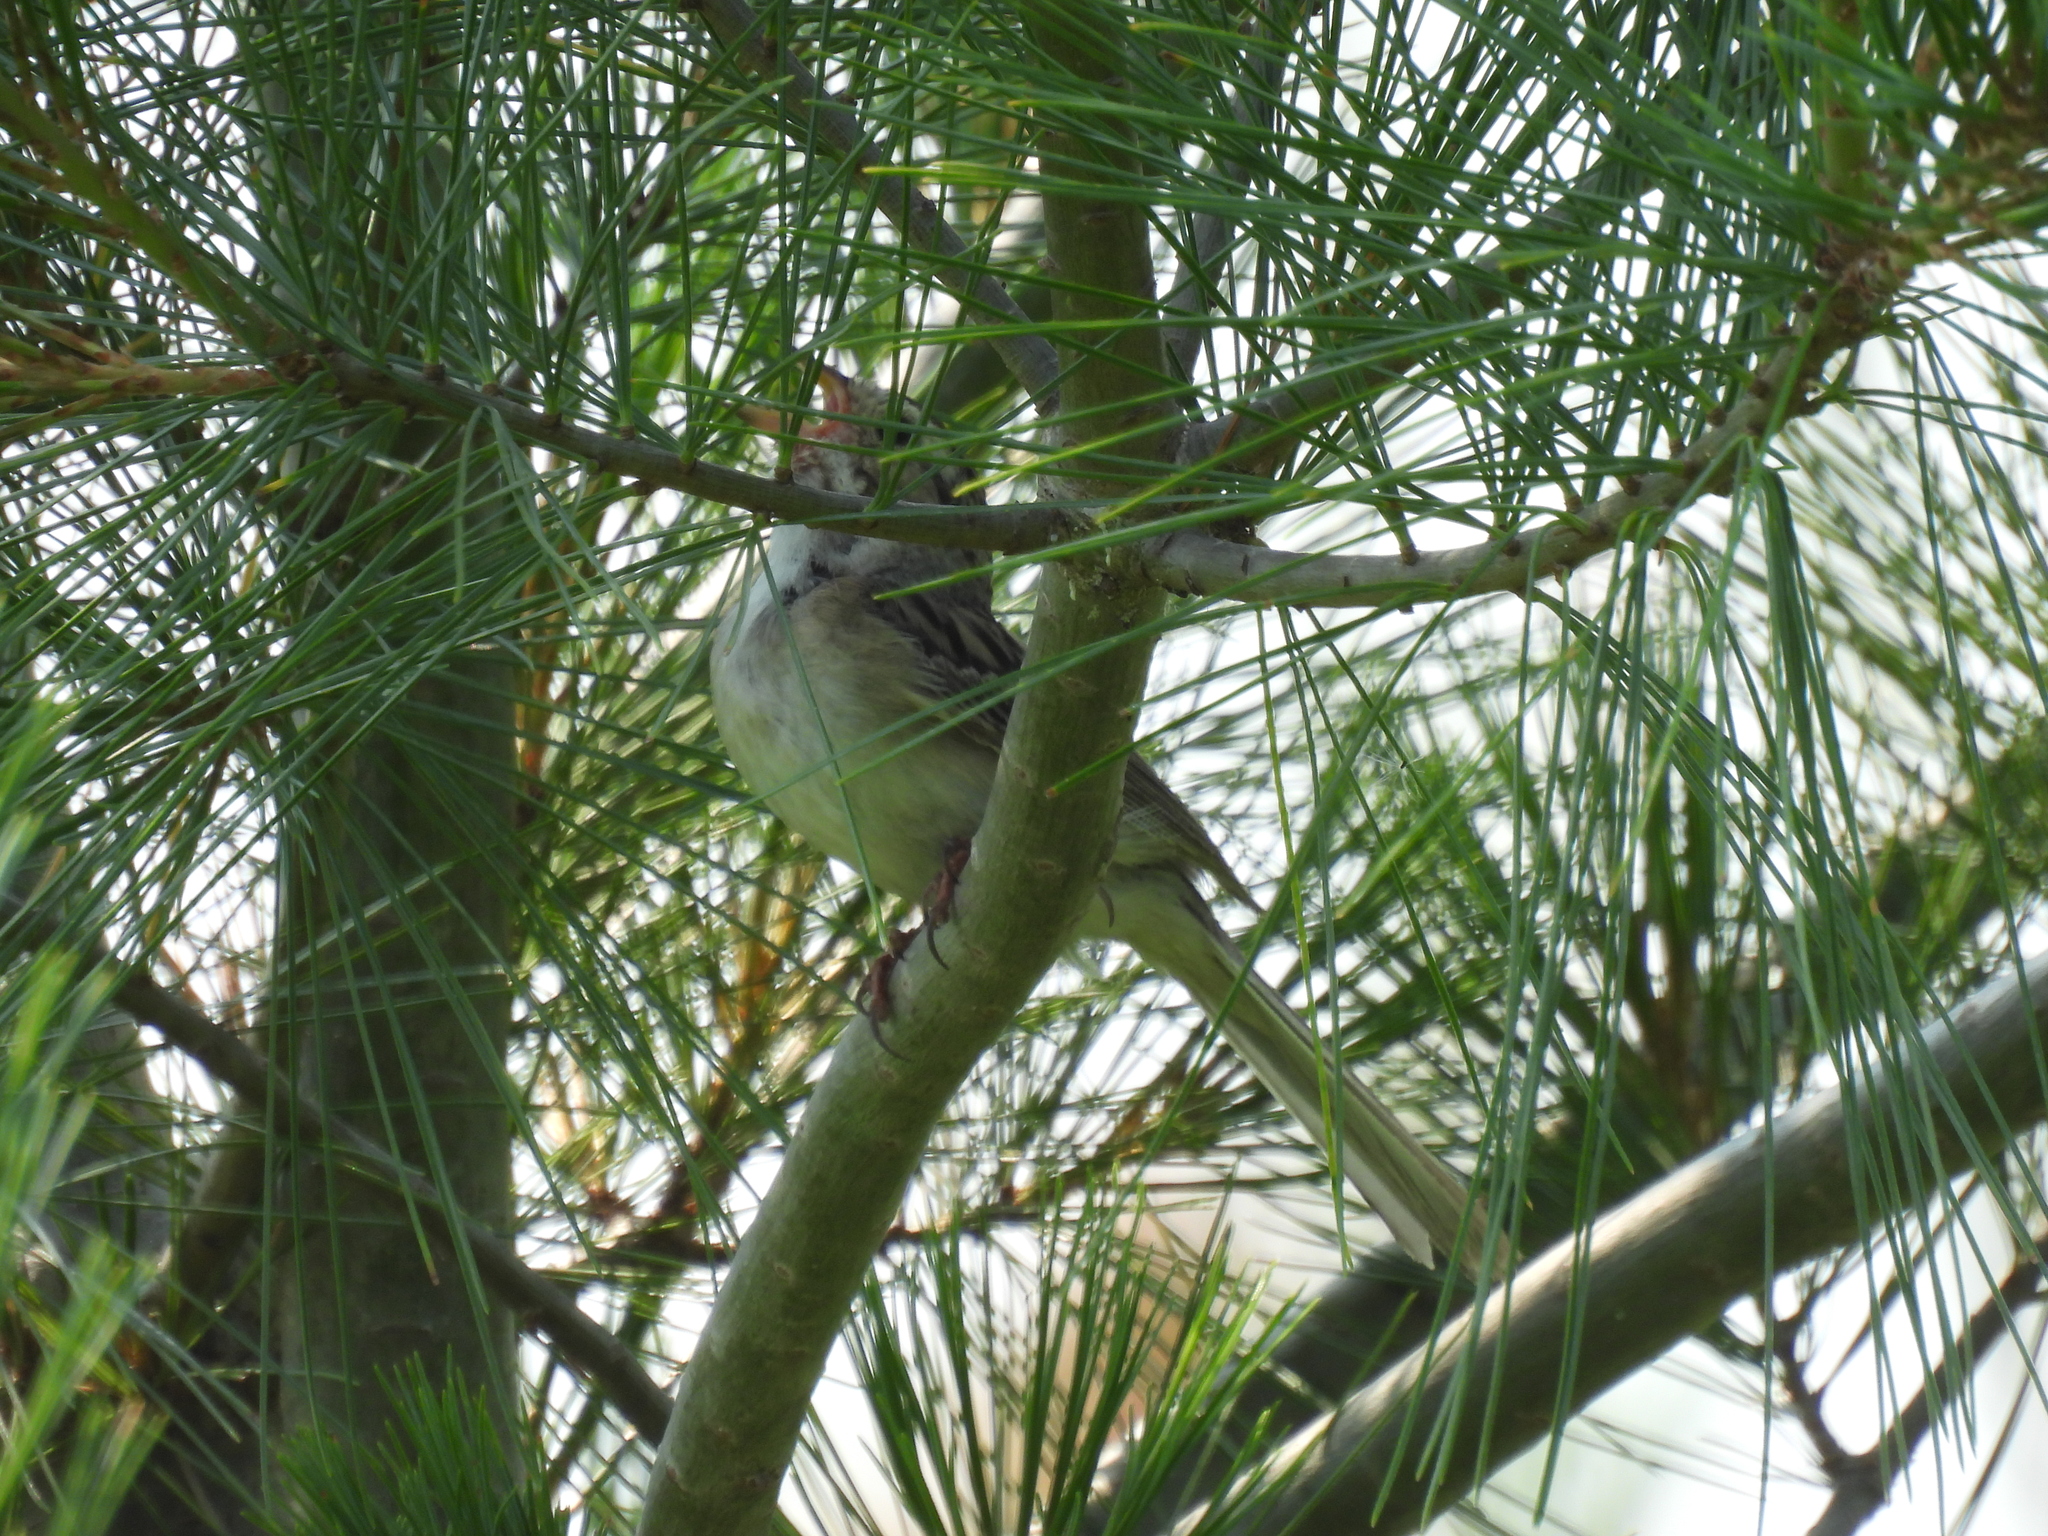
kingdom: Animalia
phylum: Chordata
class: Aves
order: Passeriformes
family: Passerellidae
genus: Spizella
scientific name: Spizella pallida
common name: Clay-colored sparrow
